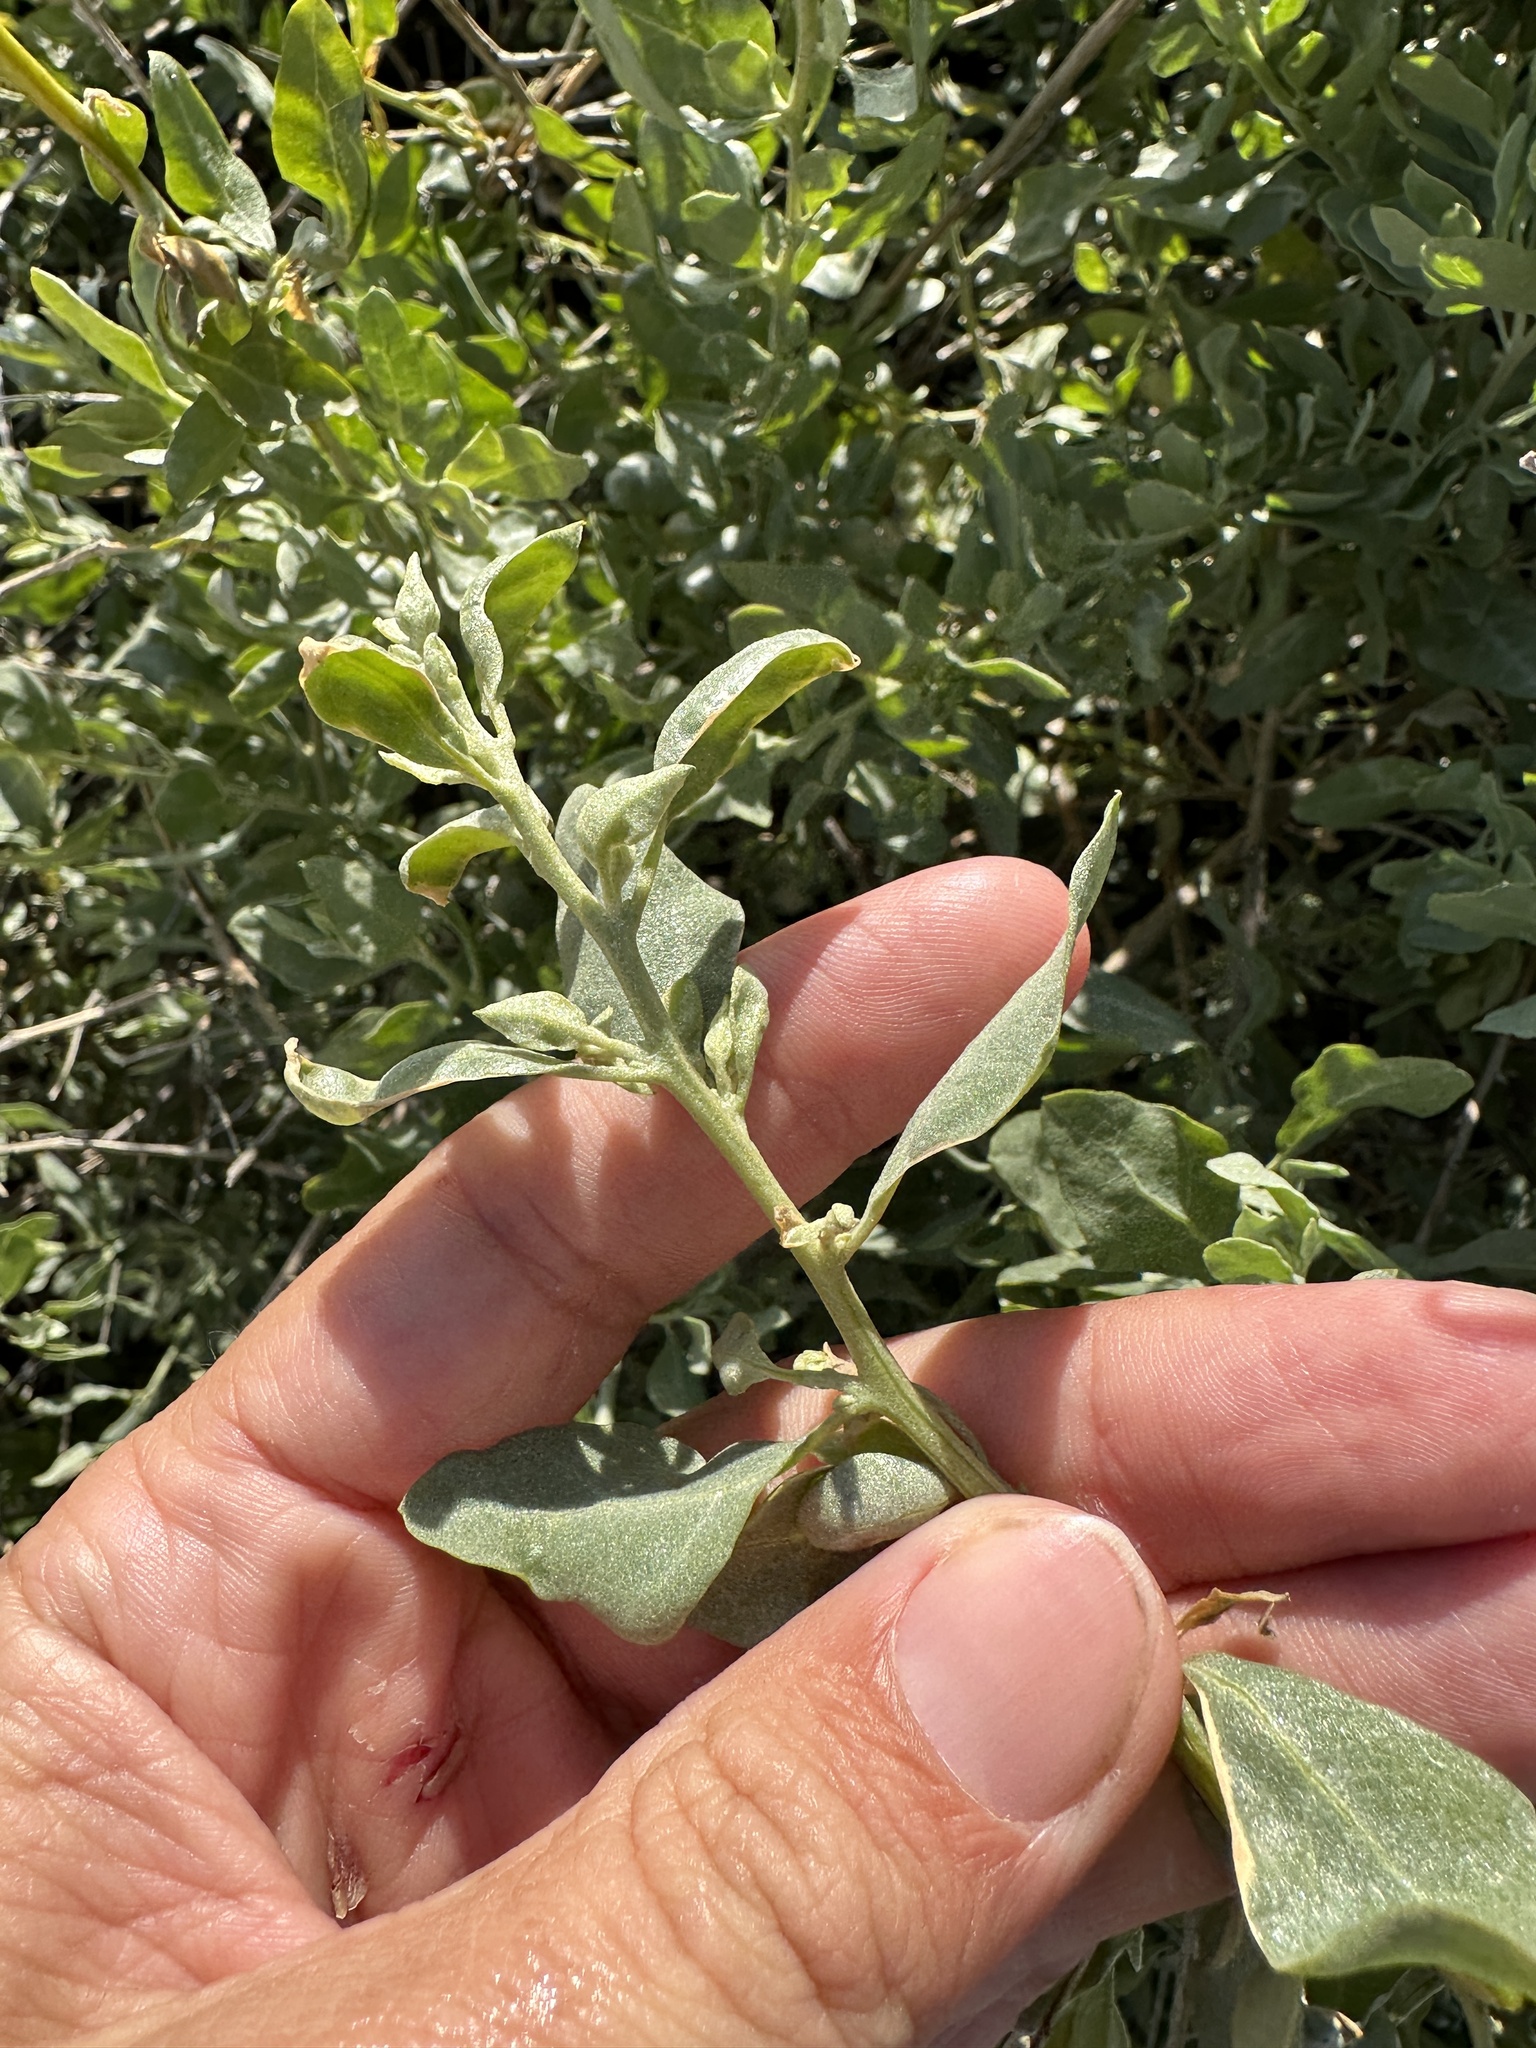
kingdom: Plantae
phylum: Tracheophyta
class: Magnoliopsida
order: Caryophyllales
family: Amaranthaceae
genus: Atriplex
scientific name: Atriplex lentiformis
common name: Big saltbush
